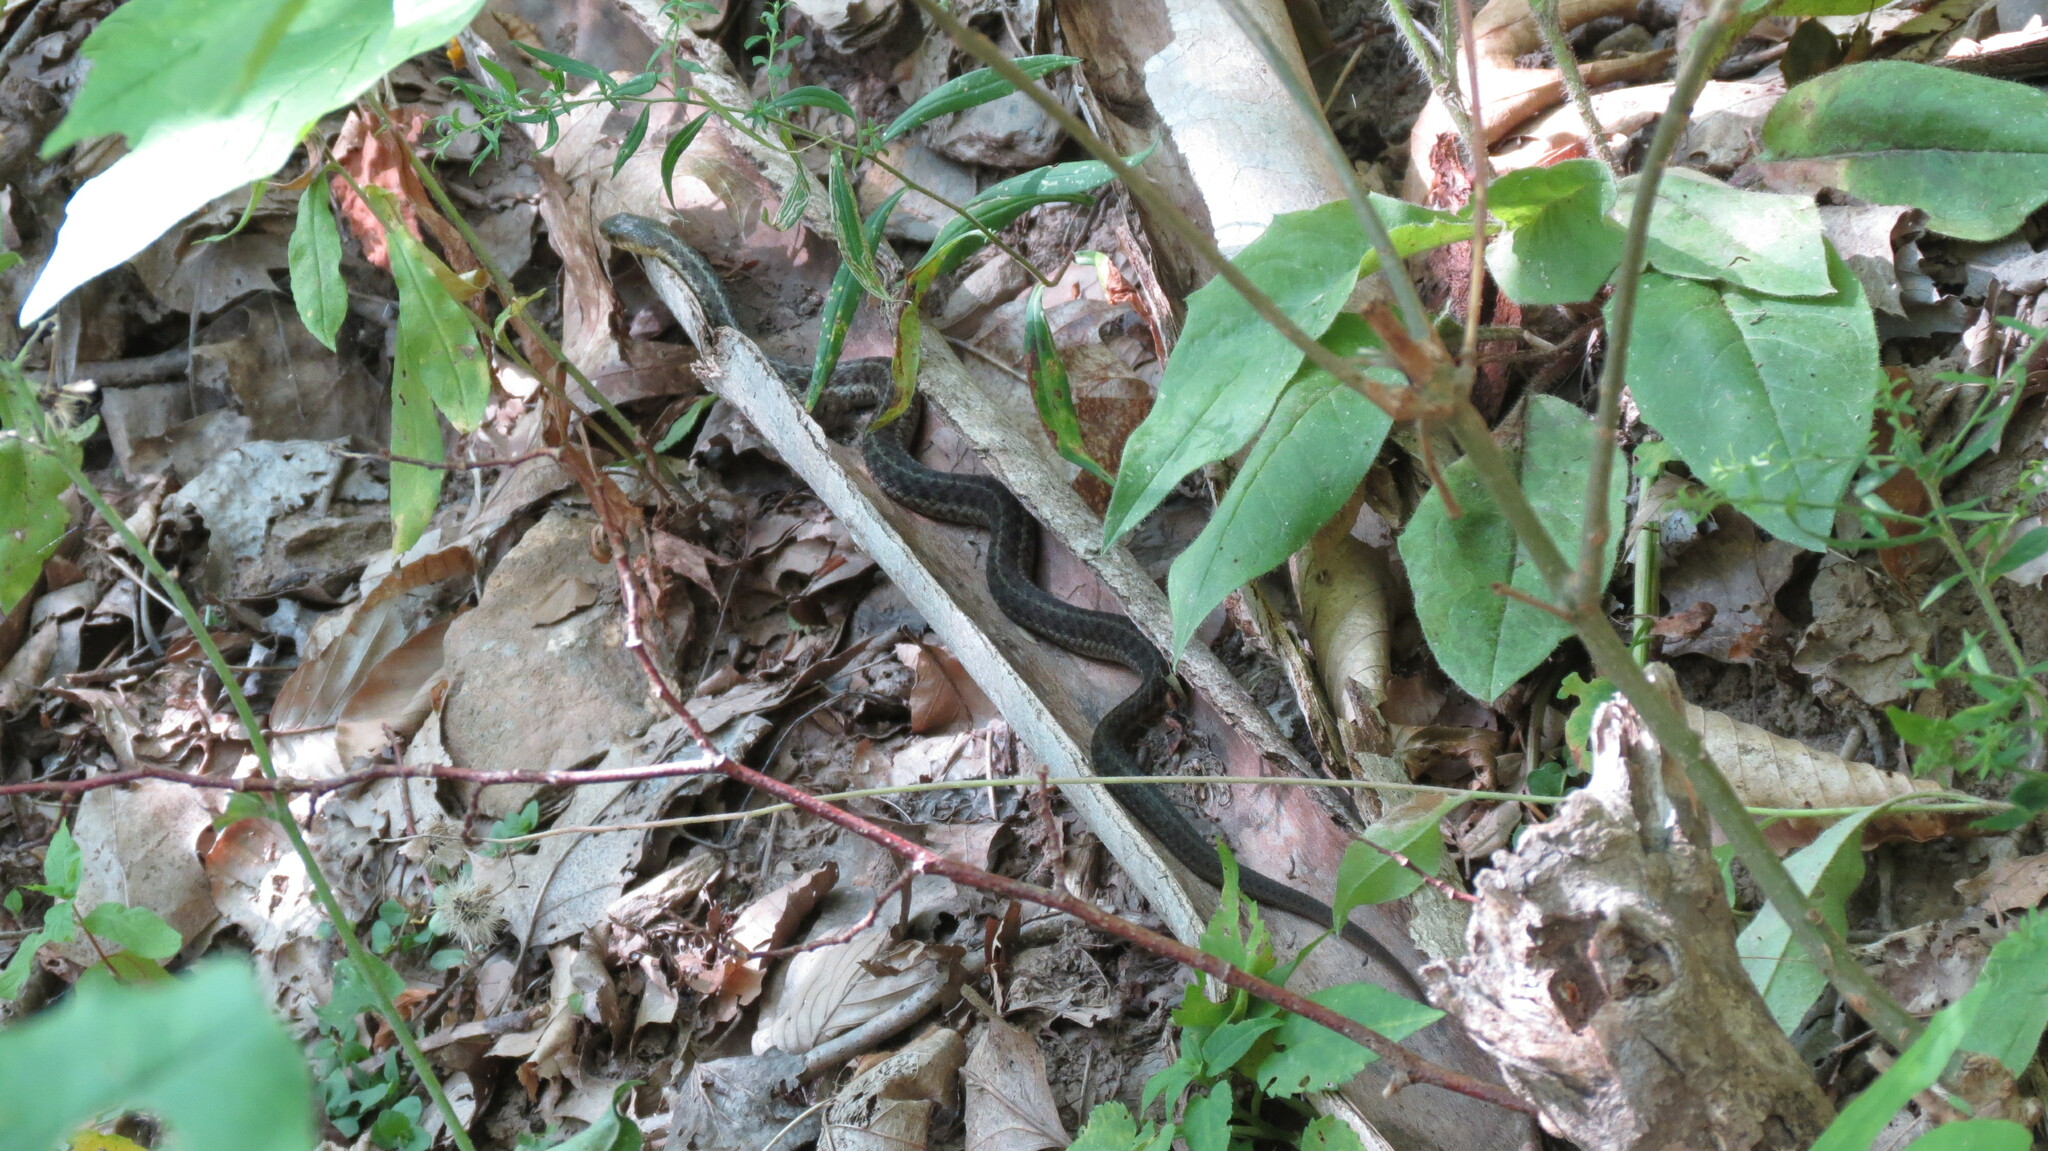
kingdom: Animalia
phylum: Chordata
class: Squamata
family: Colubridae
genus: Thamnophis
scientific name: Thamnophis sirtalis
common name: Common garter snake
